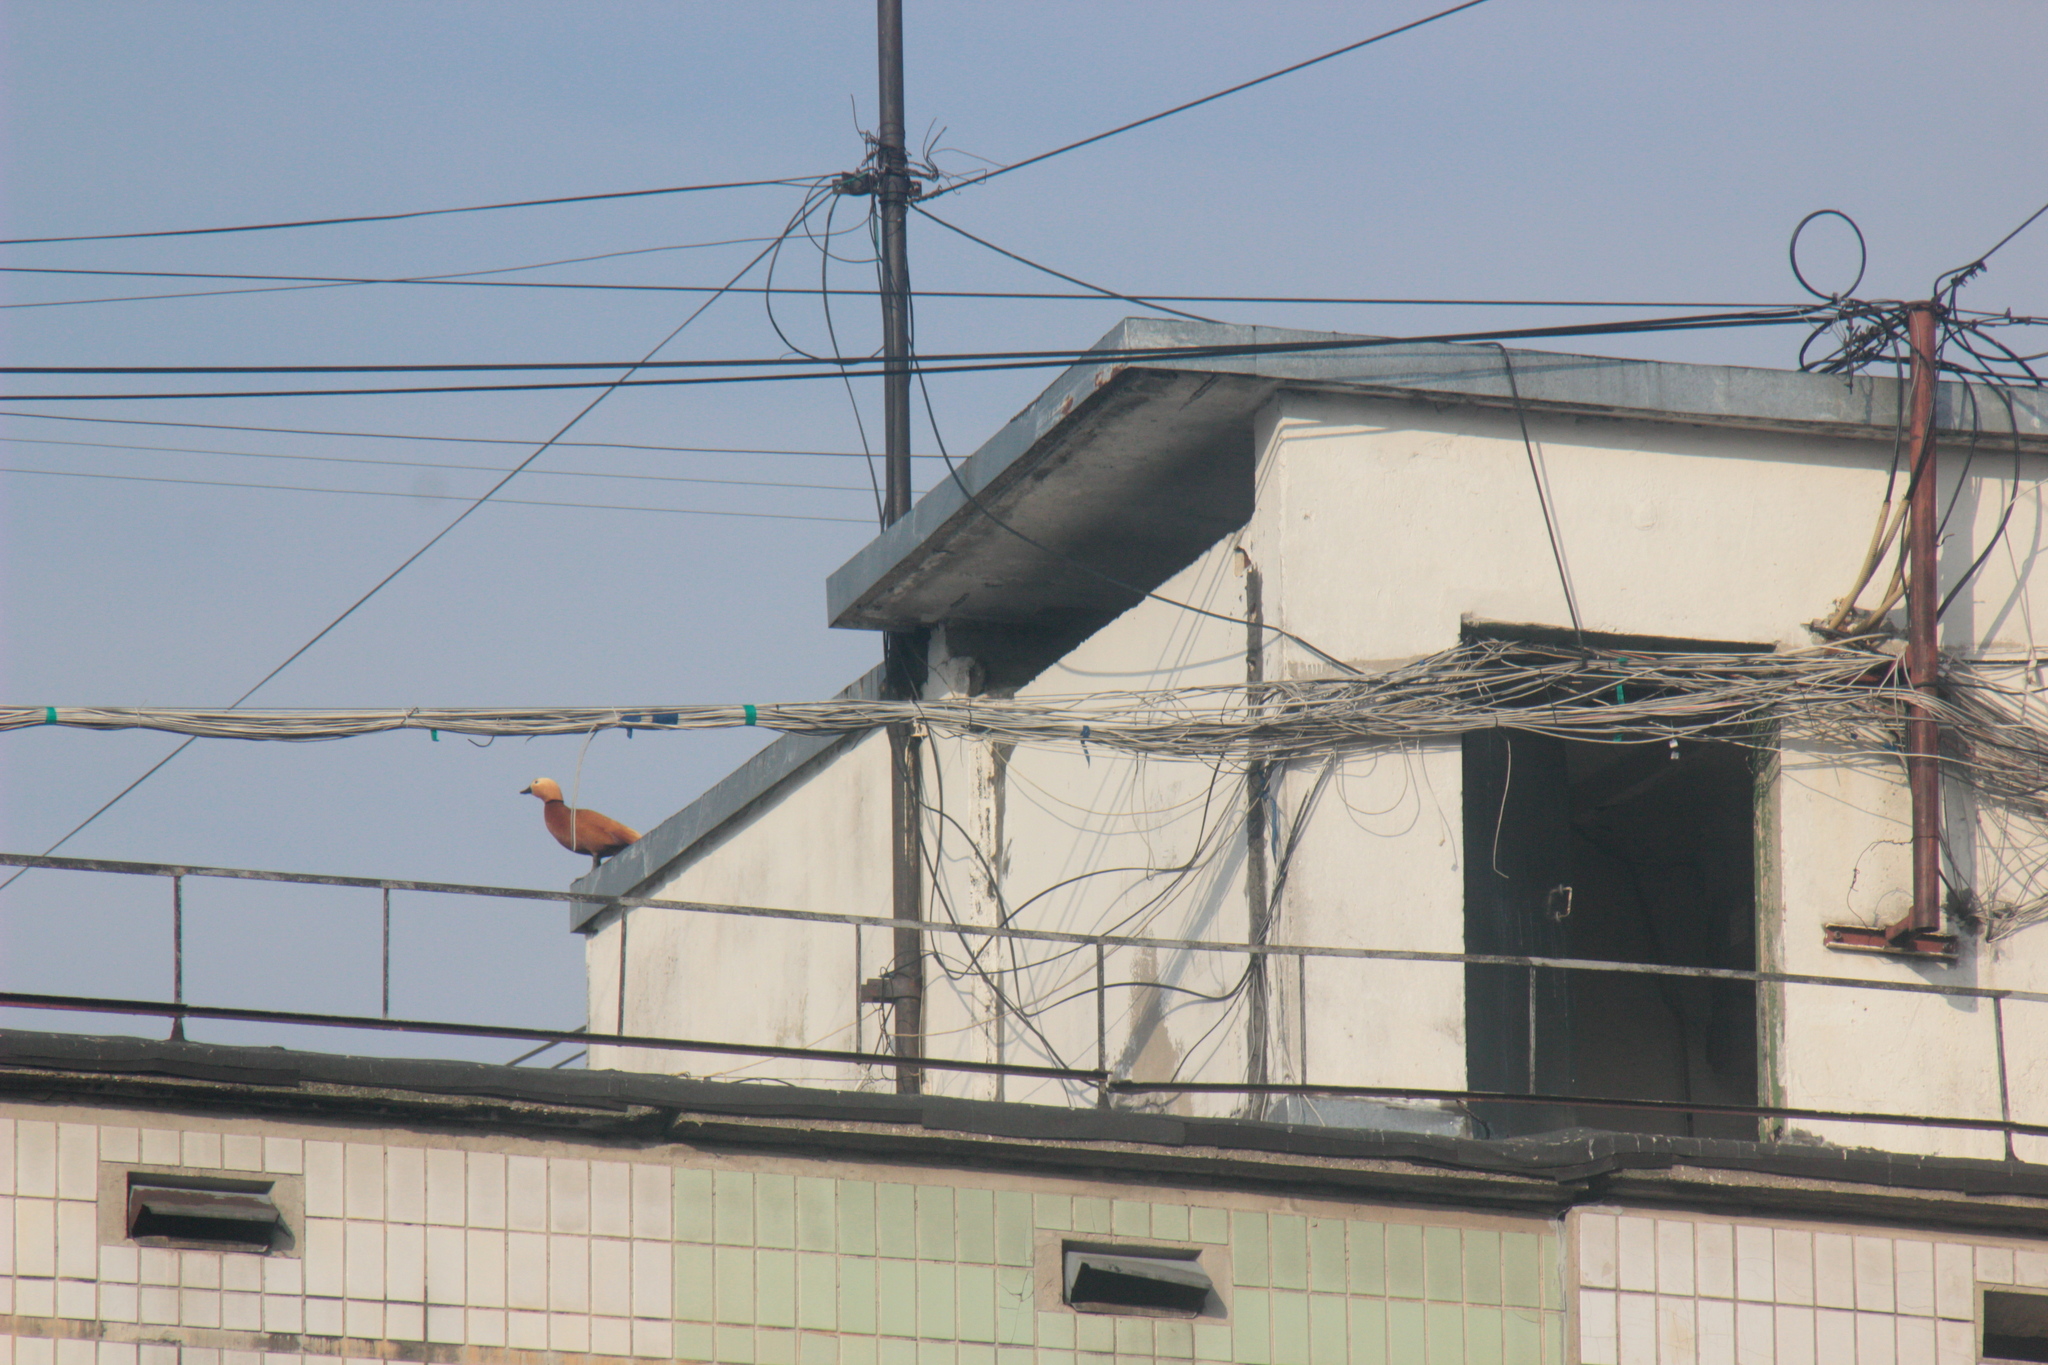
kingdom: Animalia
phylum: Chordata
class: Aves
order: Anseriformes
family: Anatidae
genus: Tadorna
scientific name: Tadorna ferruginea
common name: Ruddy shelduck
